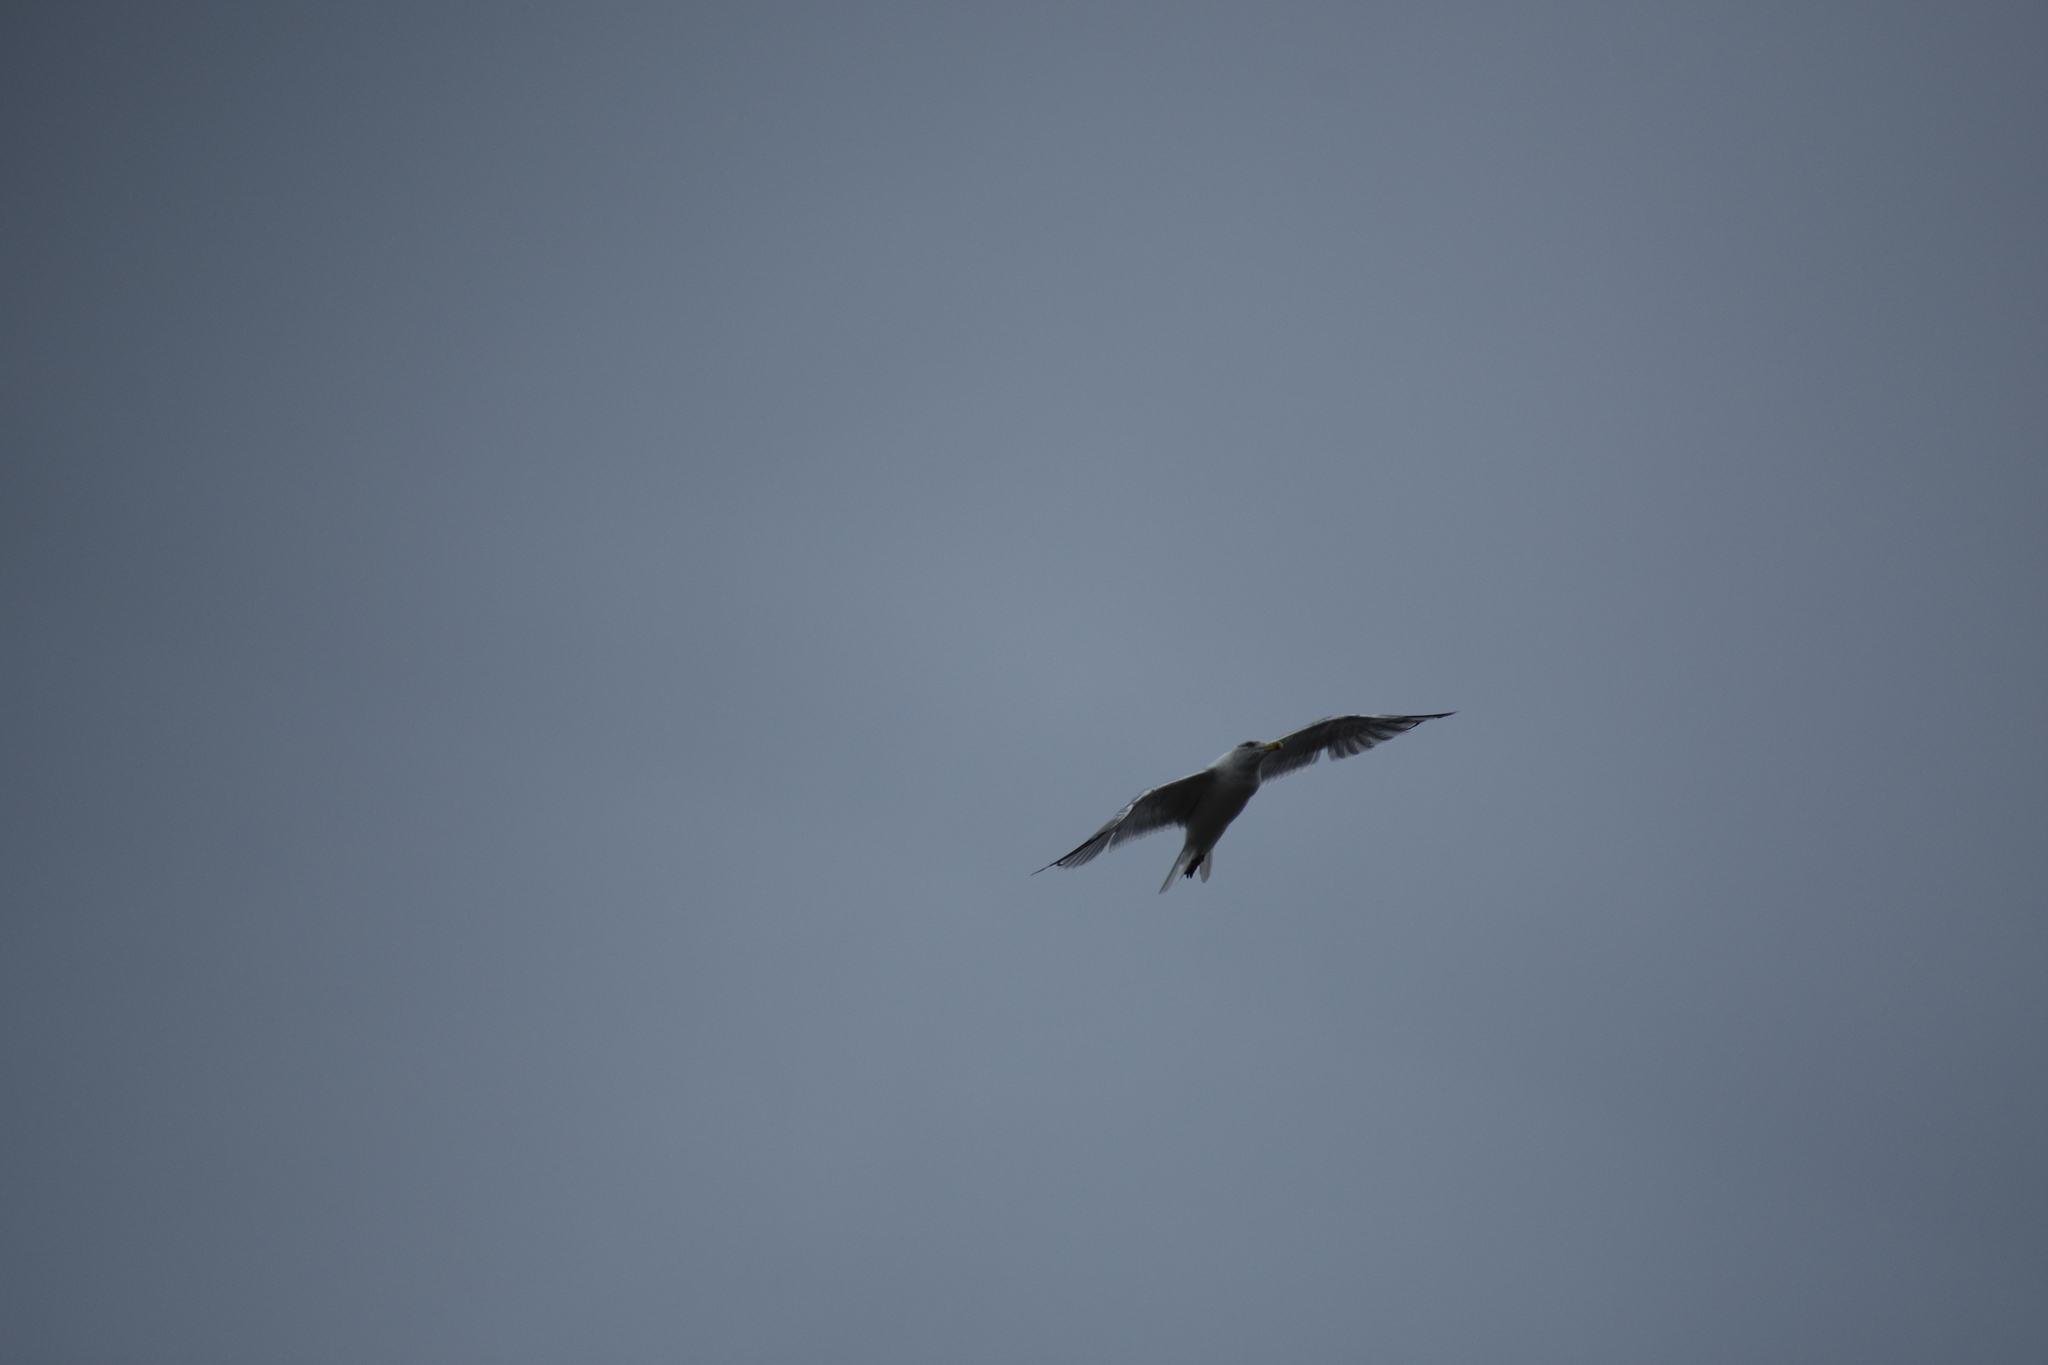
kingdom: Animalia
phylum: Chordata
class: Aves
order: Charadriiformes
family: Laridae
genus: Larus
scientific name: Larus argentatus
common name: Herring gull
